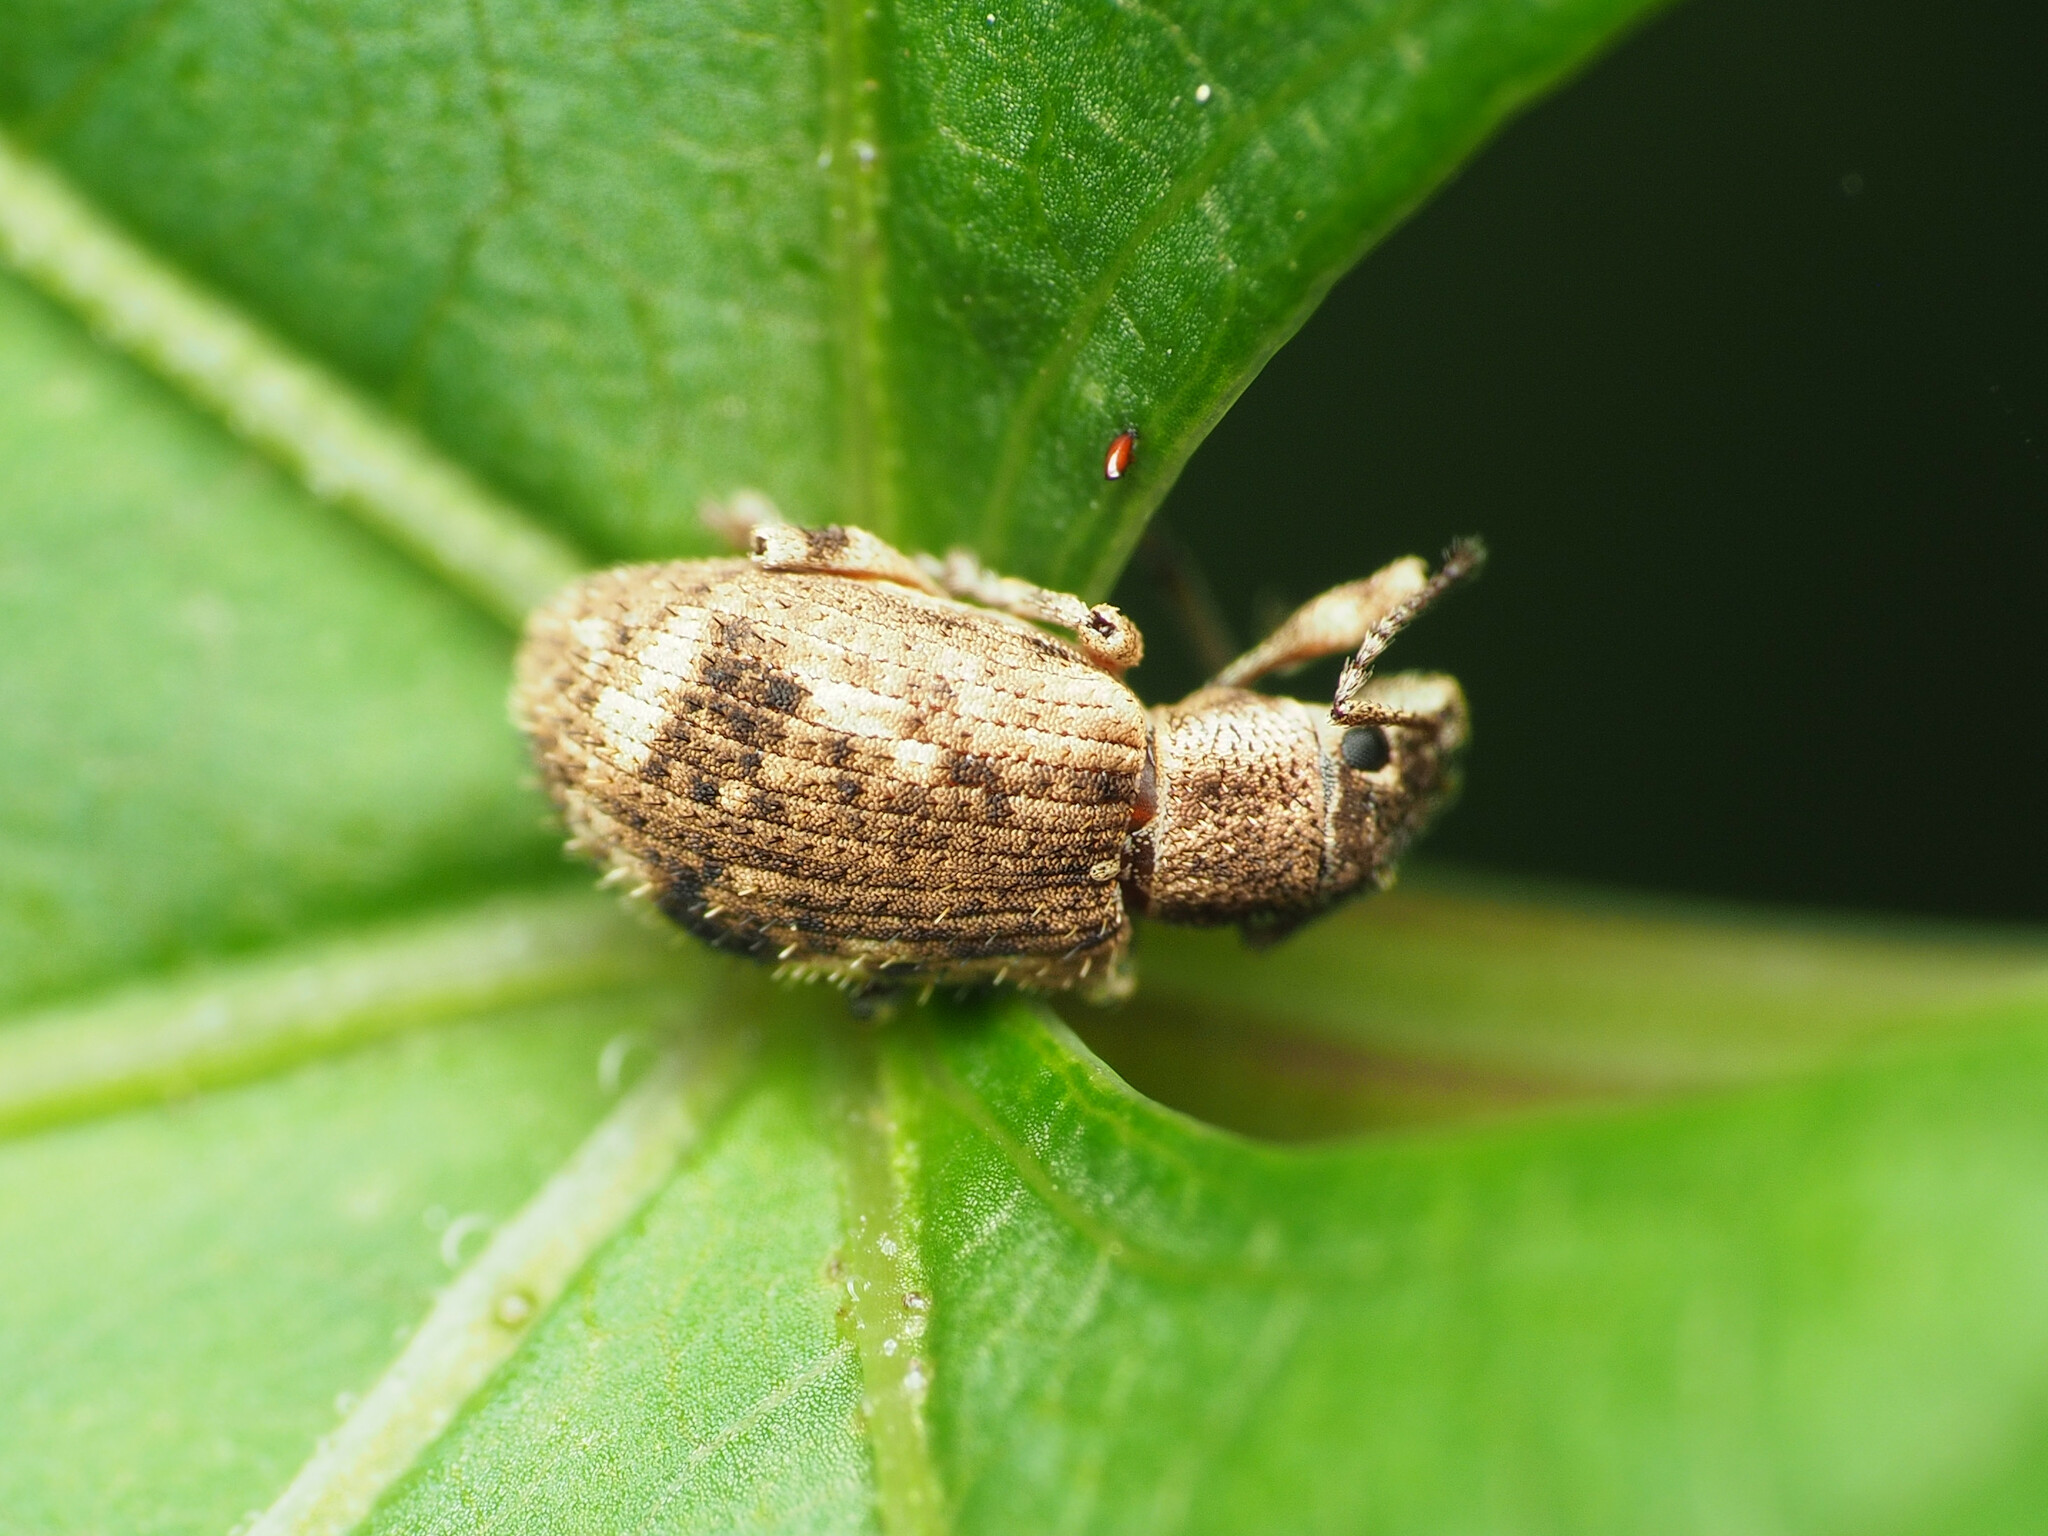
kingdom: Animalia
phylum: Arthropoda
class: Insecta
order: Coleoptera
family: Curculionidae
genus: Pseudoedophrys
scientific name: Pseudoedophrys hilleri
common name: Weevil
